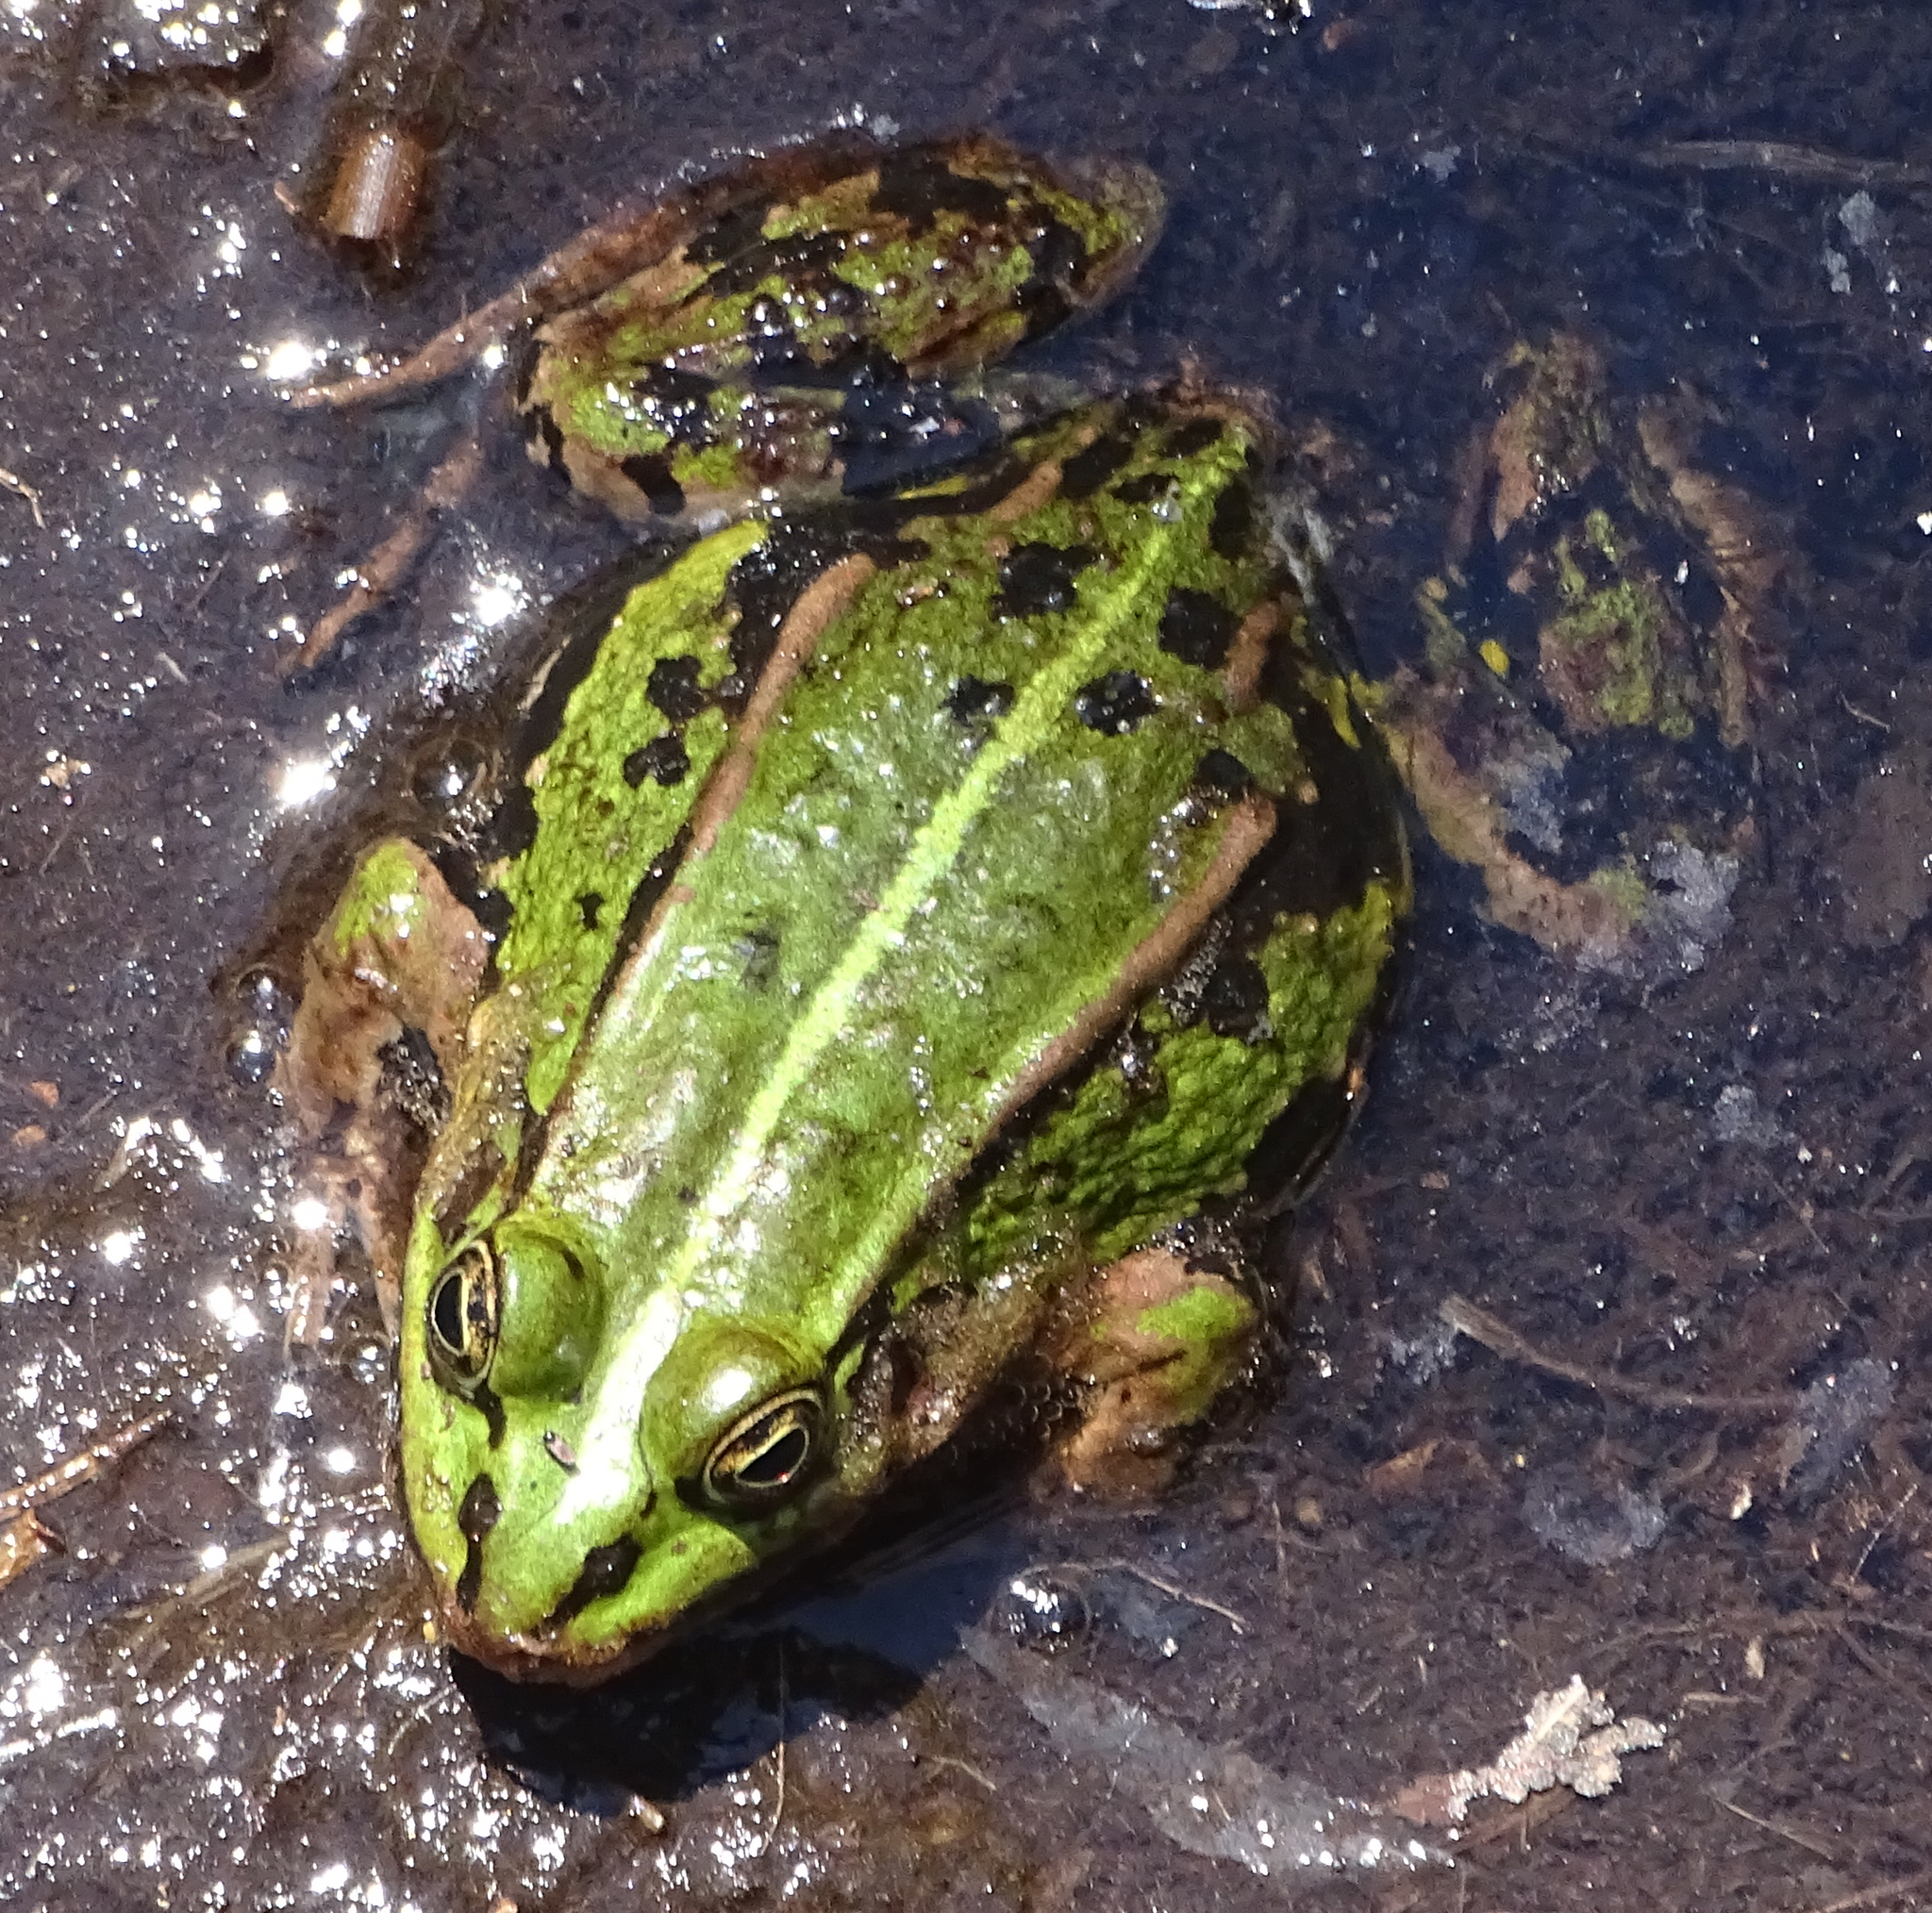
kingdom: Animalia
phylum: Chordata
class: Amphibia
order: Anura
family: Ranidae
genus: Pelophylax
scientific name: Pelophylax
